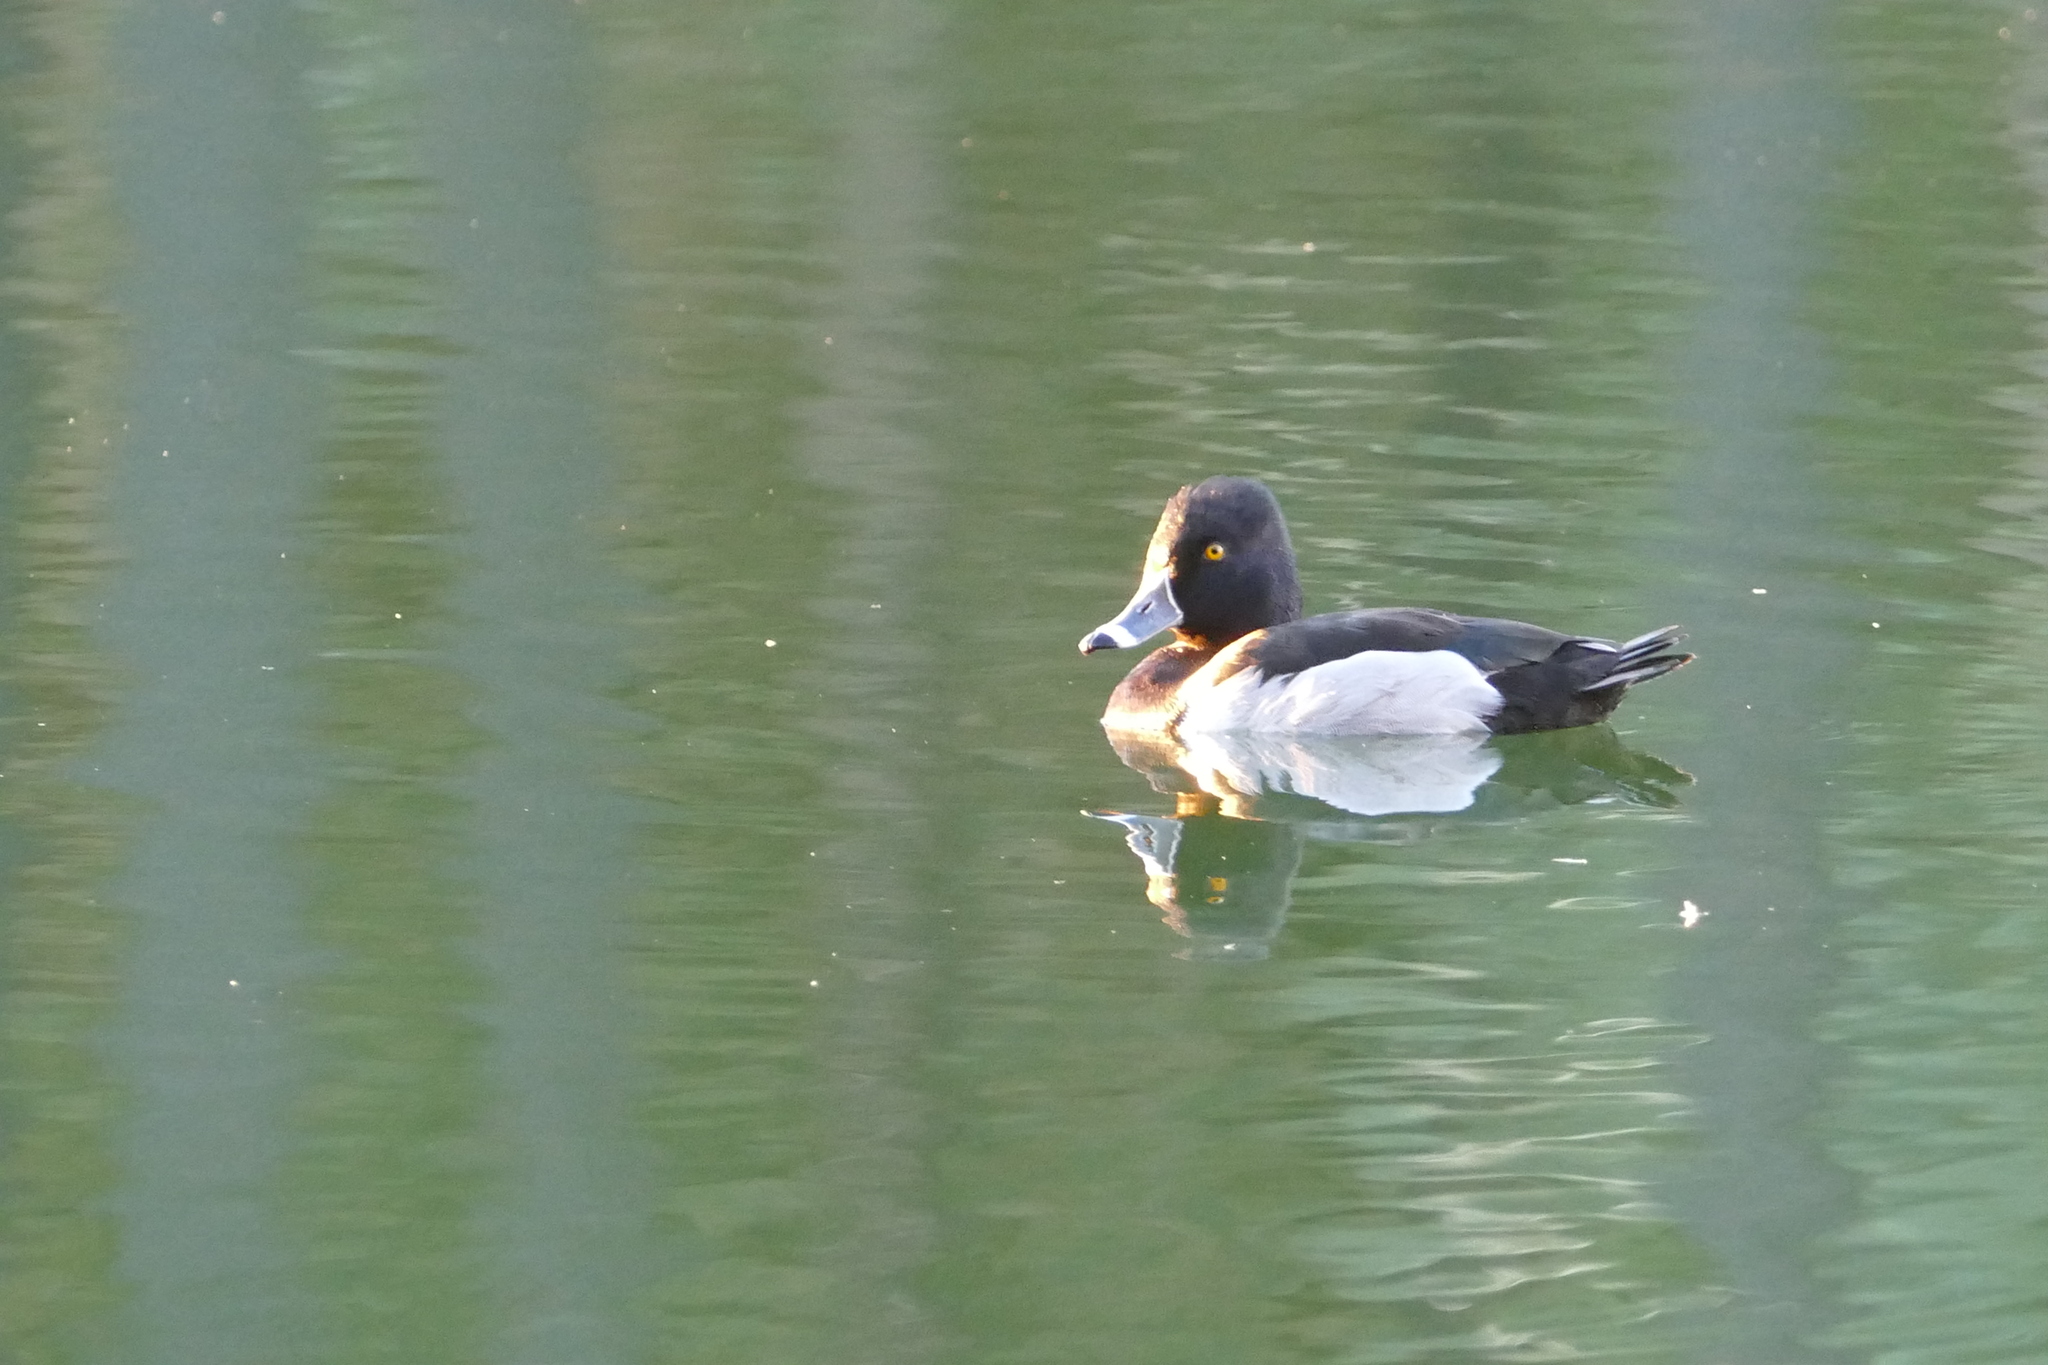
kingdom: Animalia
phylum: Chordata
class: Aves
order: Anseriformes
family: Anatidae
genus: Aythya
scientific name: Aythya collaris
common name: Ring-necked duck
